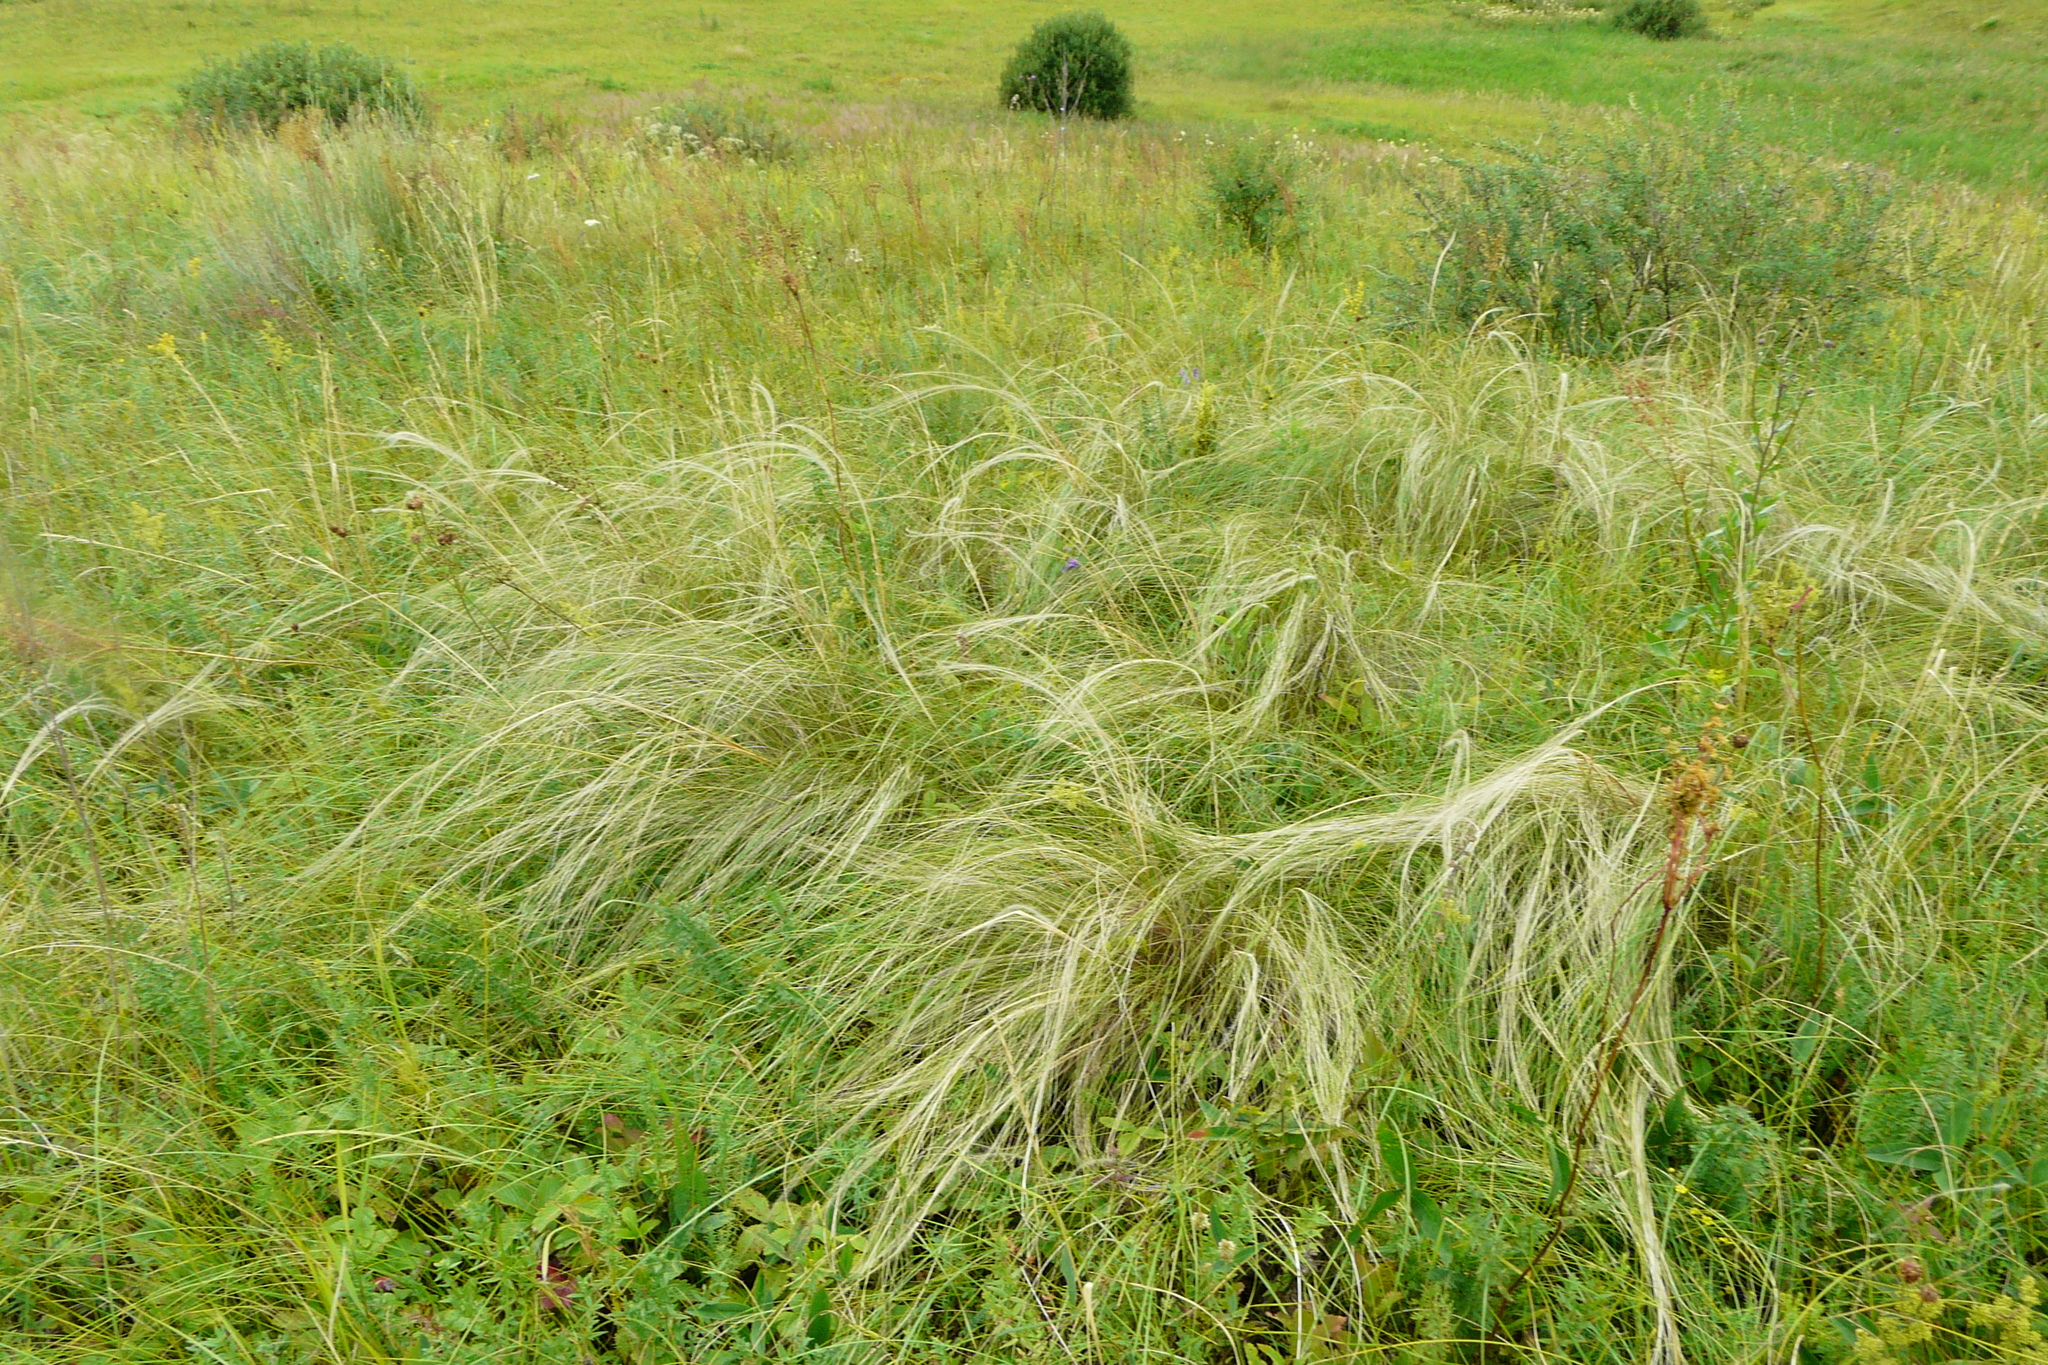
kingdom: Plantae
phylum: Tracheophyta
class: Liliopsida
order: Poales
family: Poaceae
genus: Stipa
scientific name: Stipa tirsa
